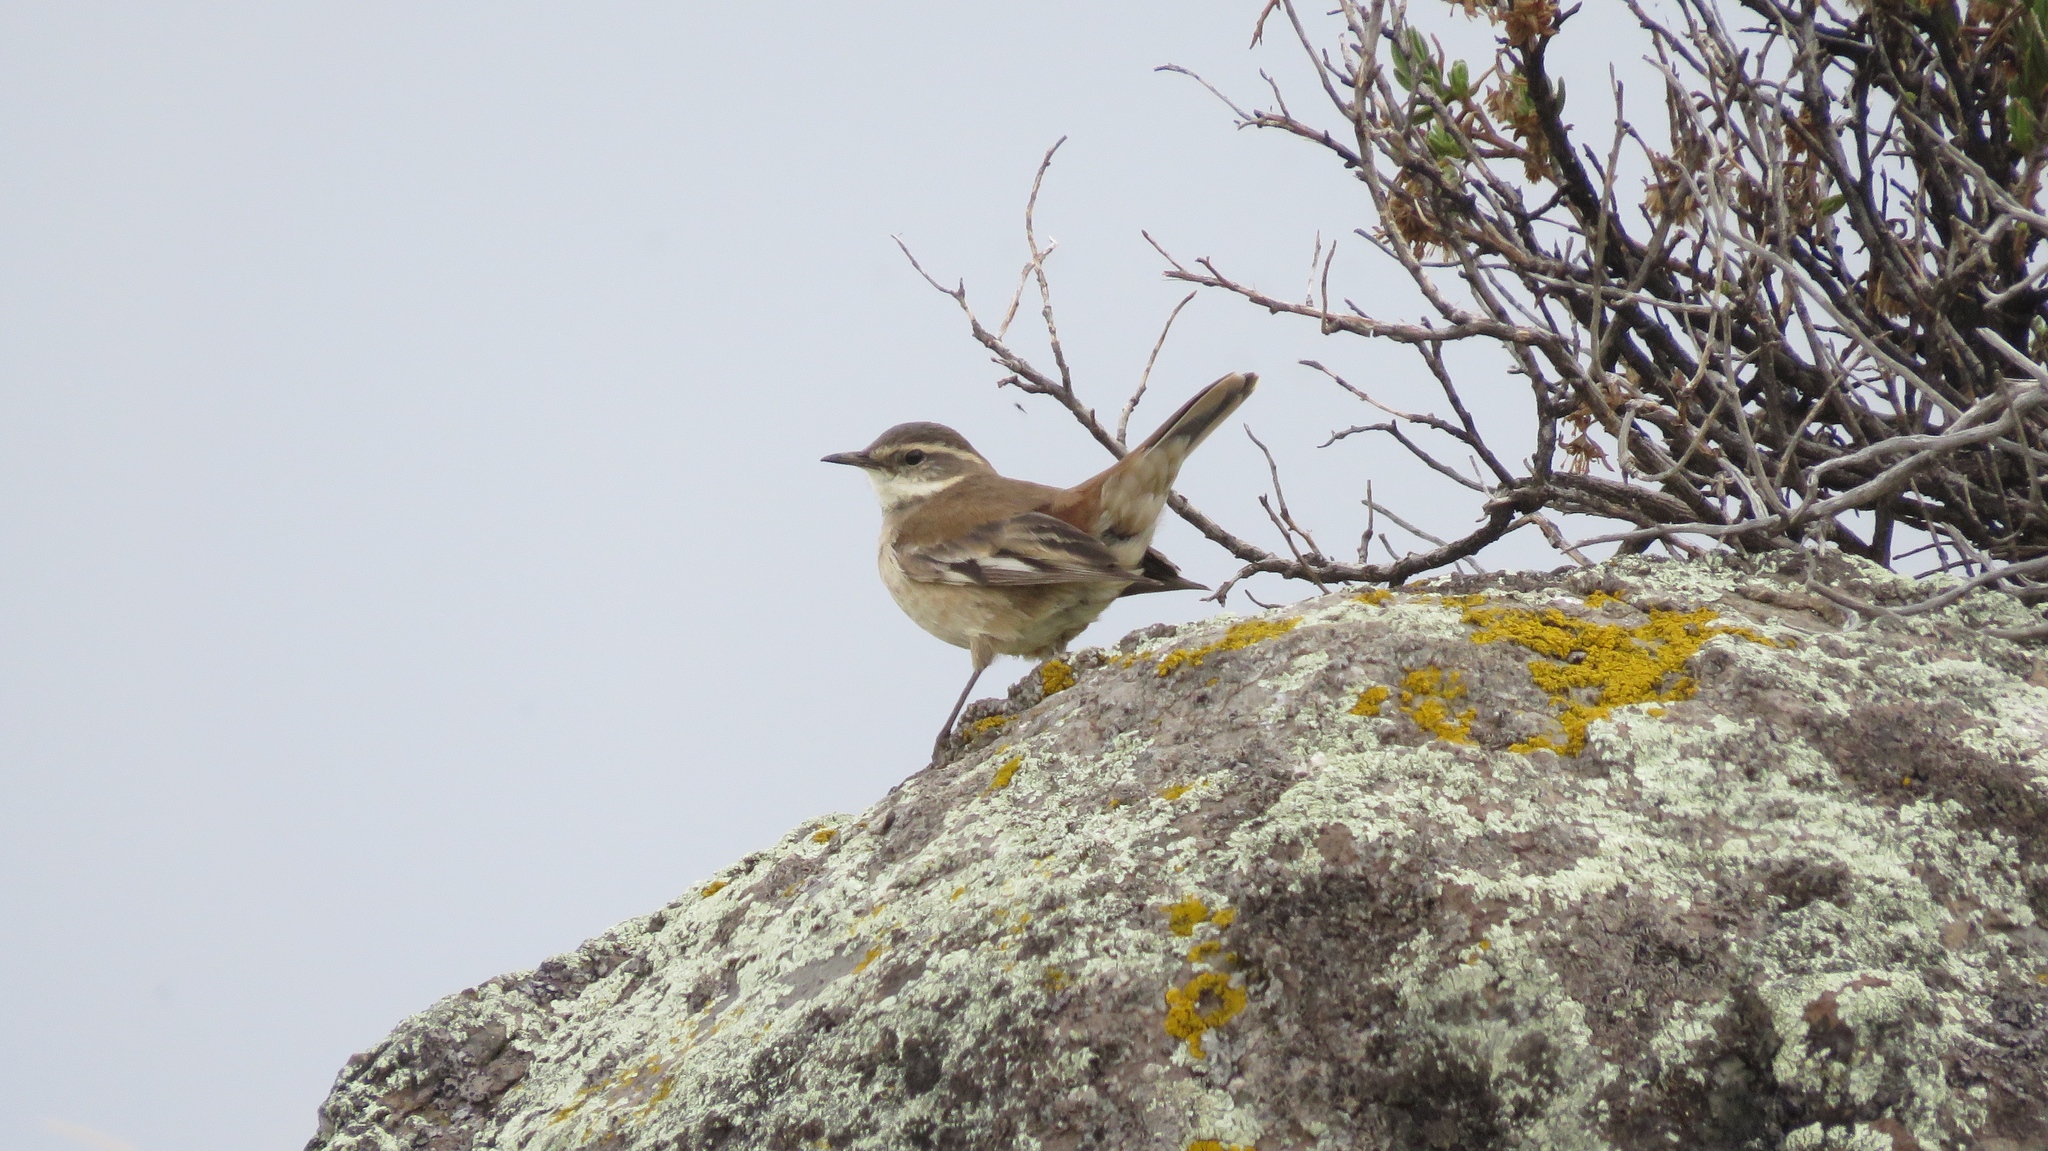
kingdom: Animalia
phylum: Chordata
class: Aves
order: Passeriformes
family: Furnariidae
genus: Cinclodes
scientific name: Cinclodes fuscus
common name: Buff-winged cinclodes
